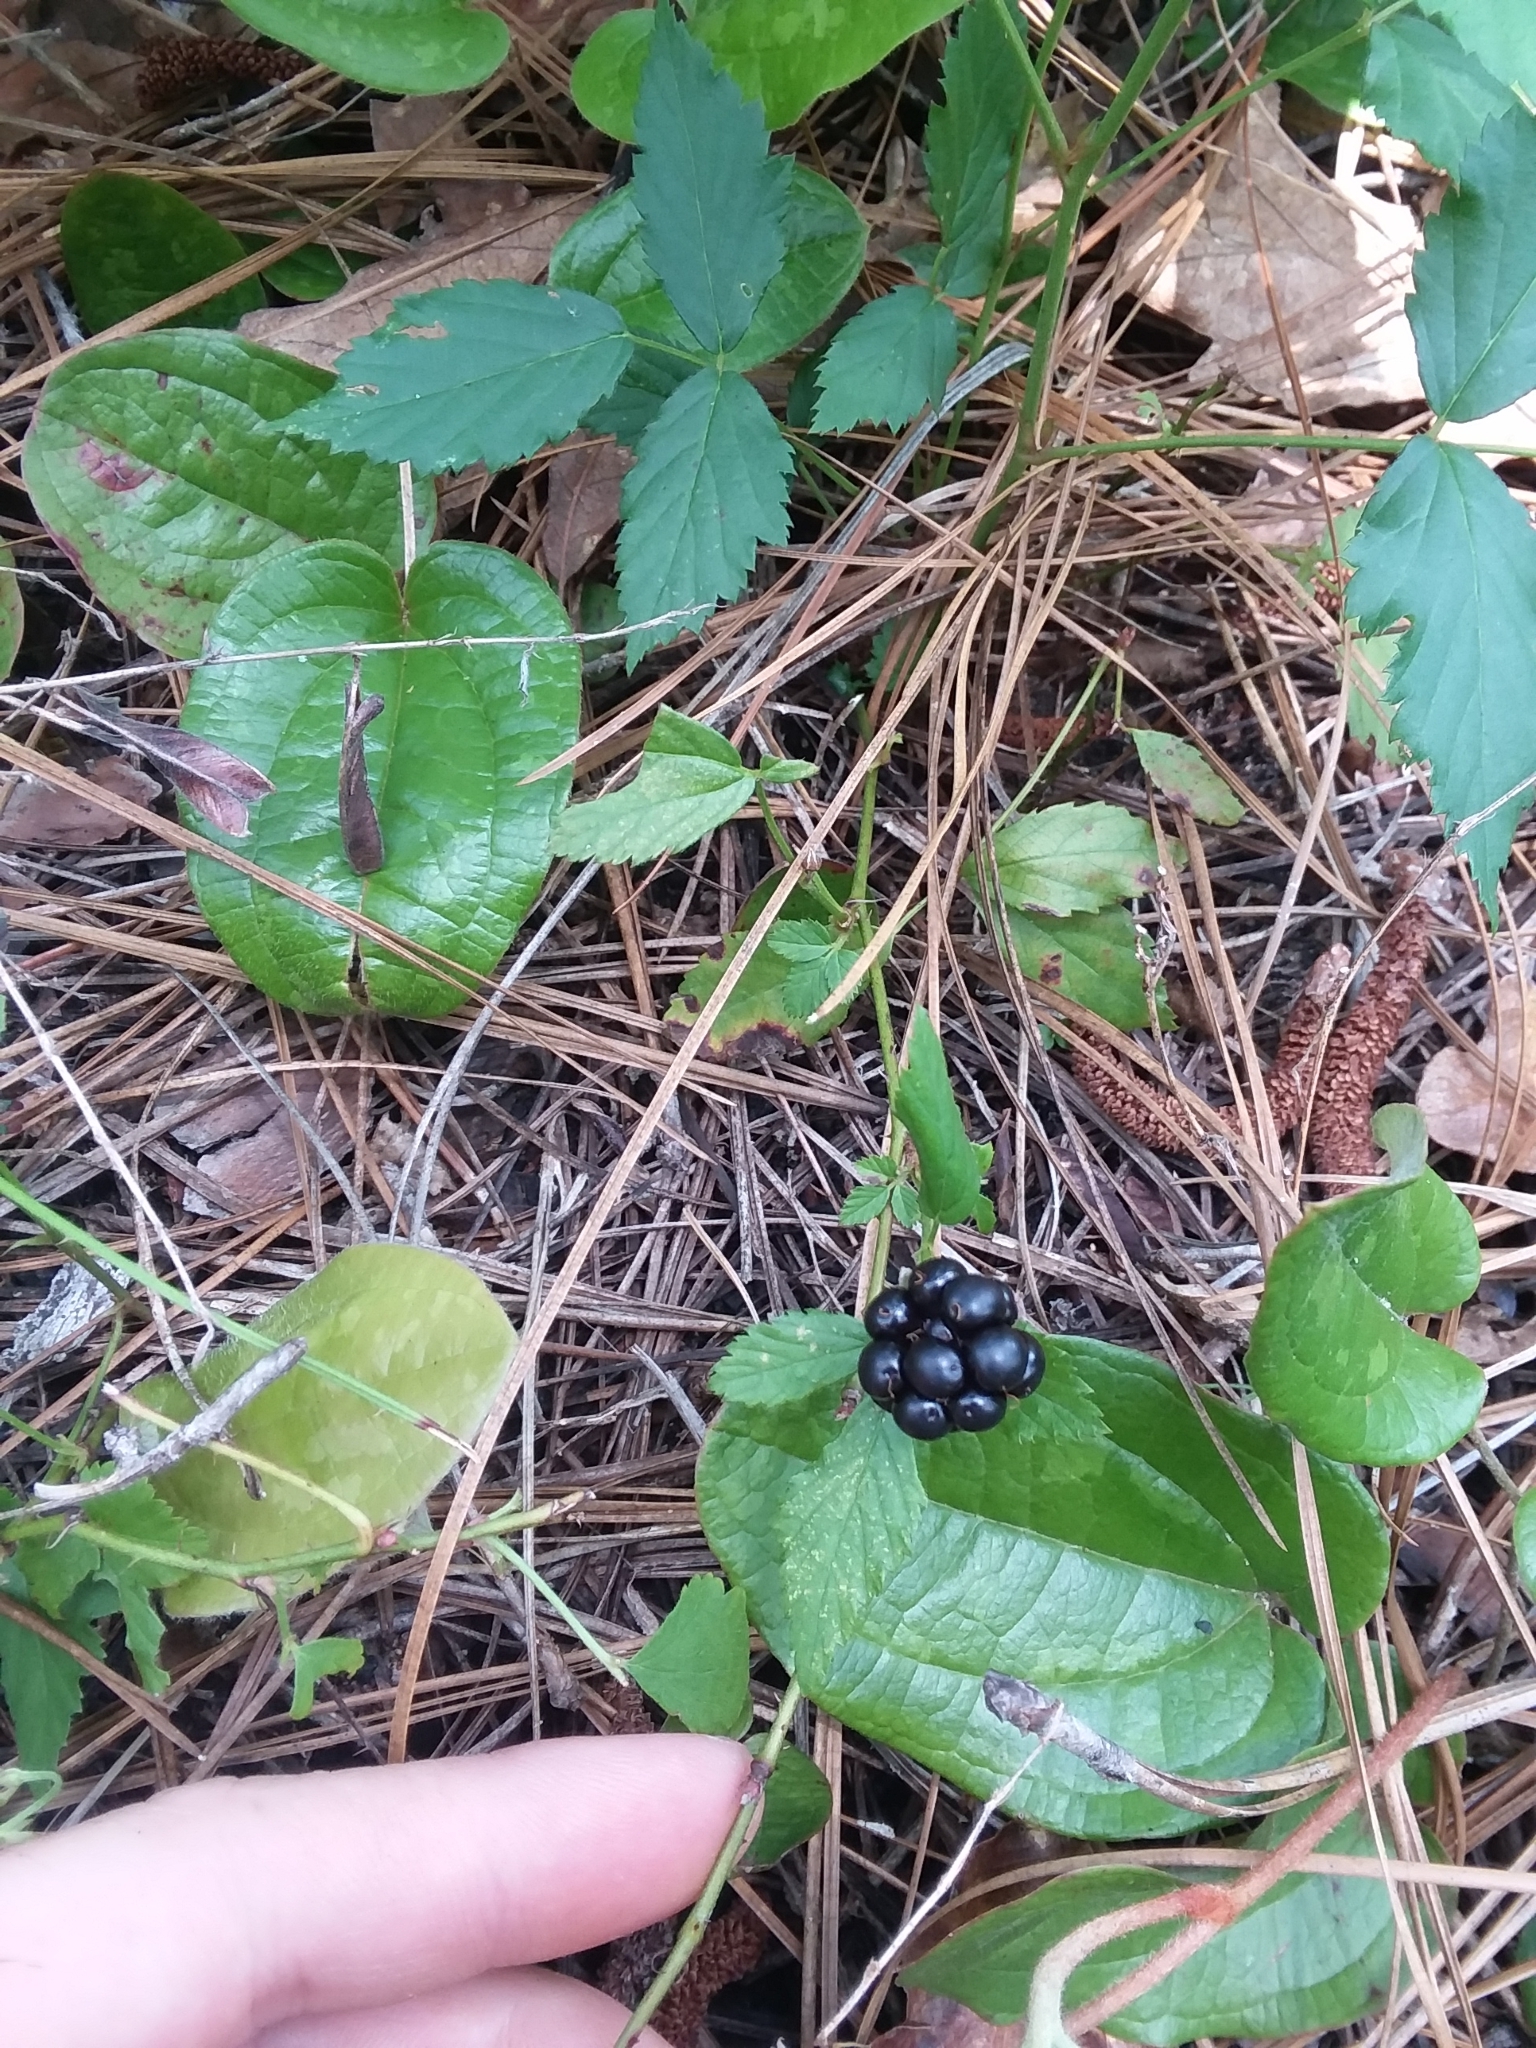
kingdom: Plantae
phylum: Tracheophyta
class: Magnoliopsida
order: Rosales
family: Rosaceae
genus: Rubus
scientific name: Rubus flagellaris
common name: American dewberry
